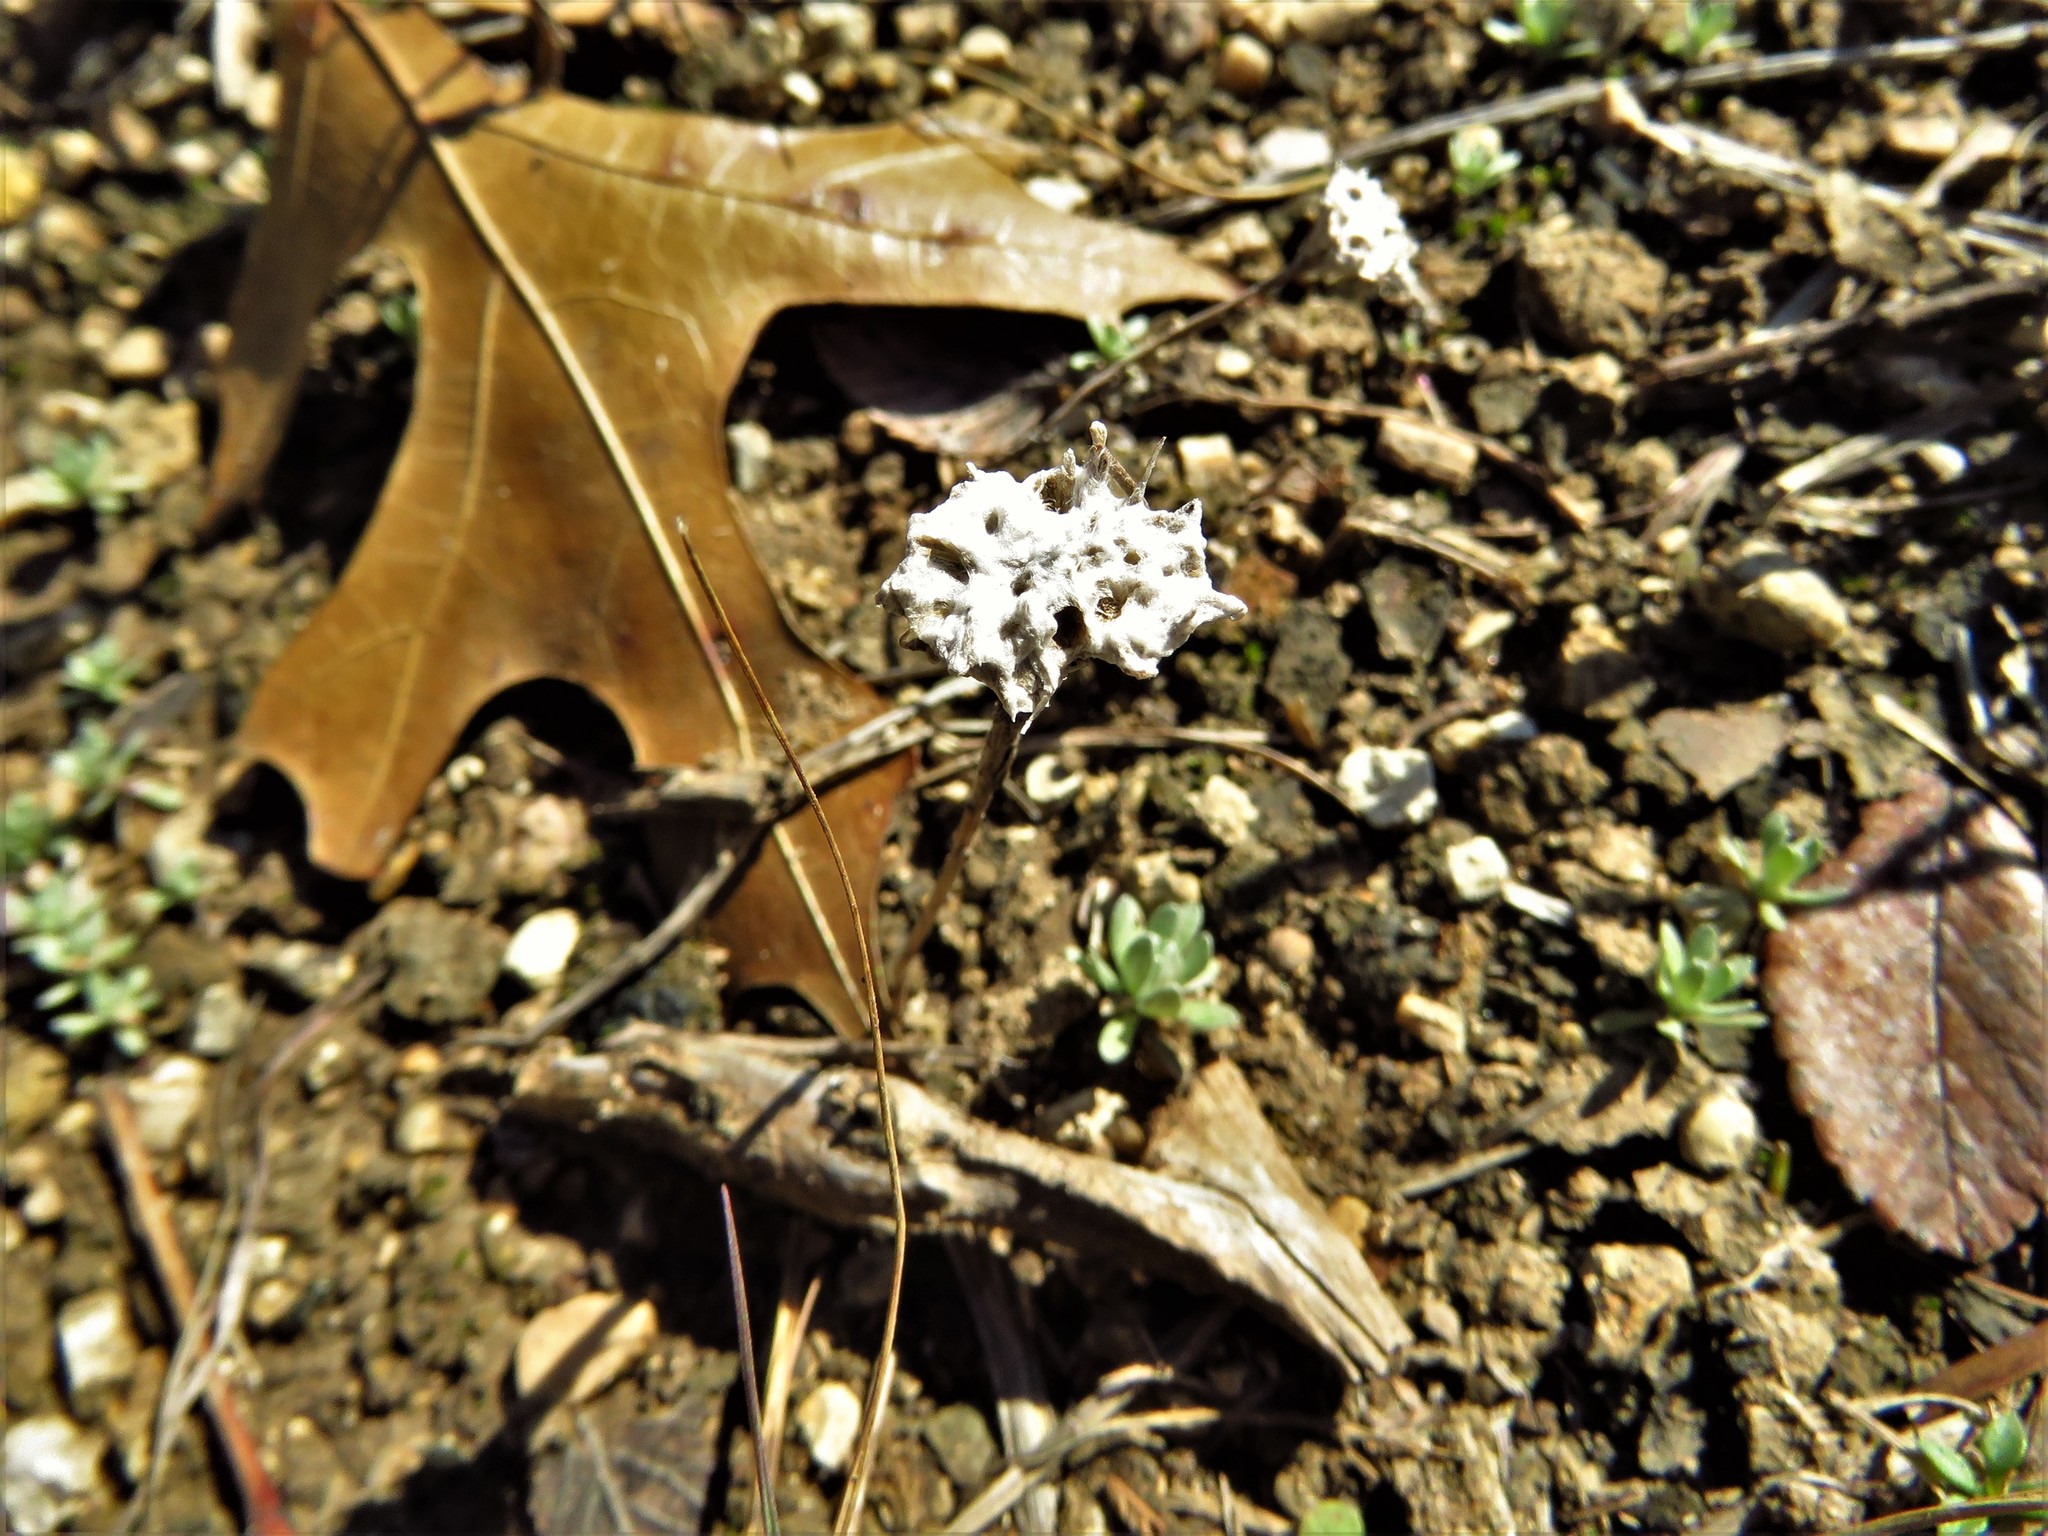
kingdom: Plantae
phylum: Tracheophyta
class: Magnoliopsida
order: Asterales
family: Asteraceae
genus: Diaperia
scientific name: Diaperia prolifera
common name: Big-head rabbit-tobacco
